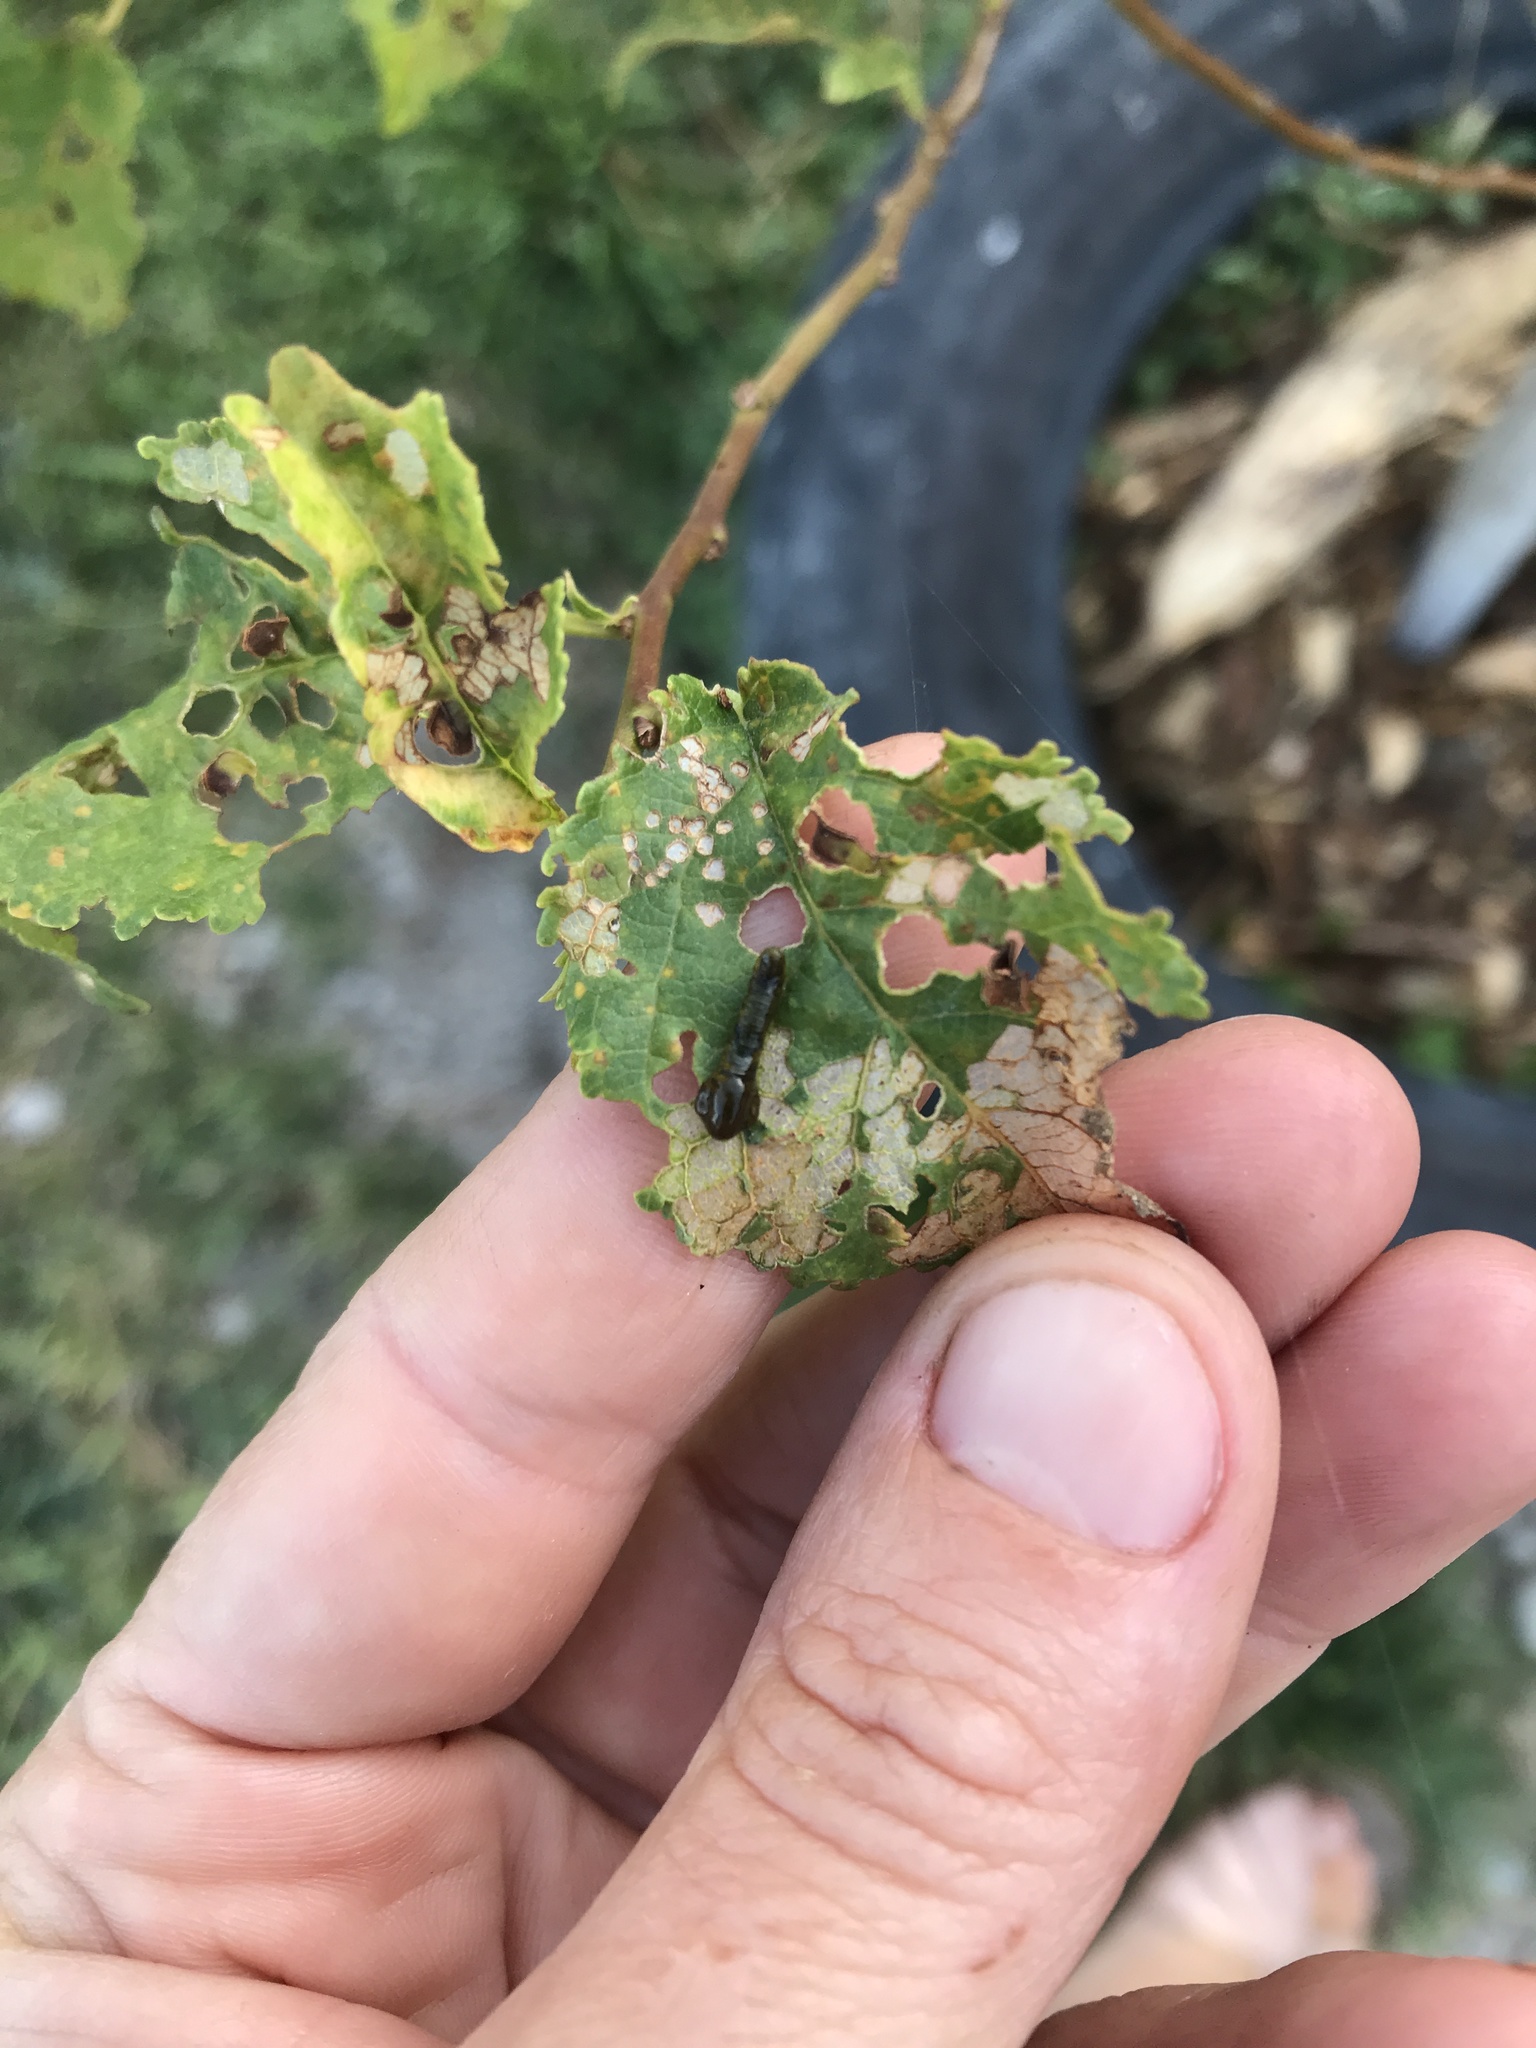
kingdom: Animalia
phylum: Arthropoda
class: Insecta
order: Hymenoptera
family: Tenthredinidae
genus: Caliroa
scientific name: Caliroa cerasi
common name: Pear sawfly
